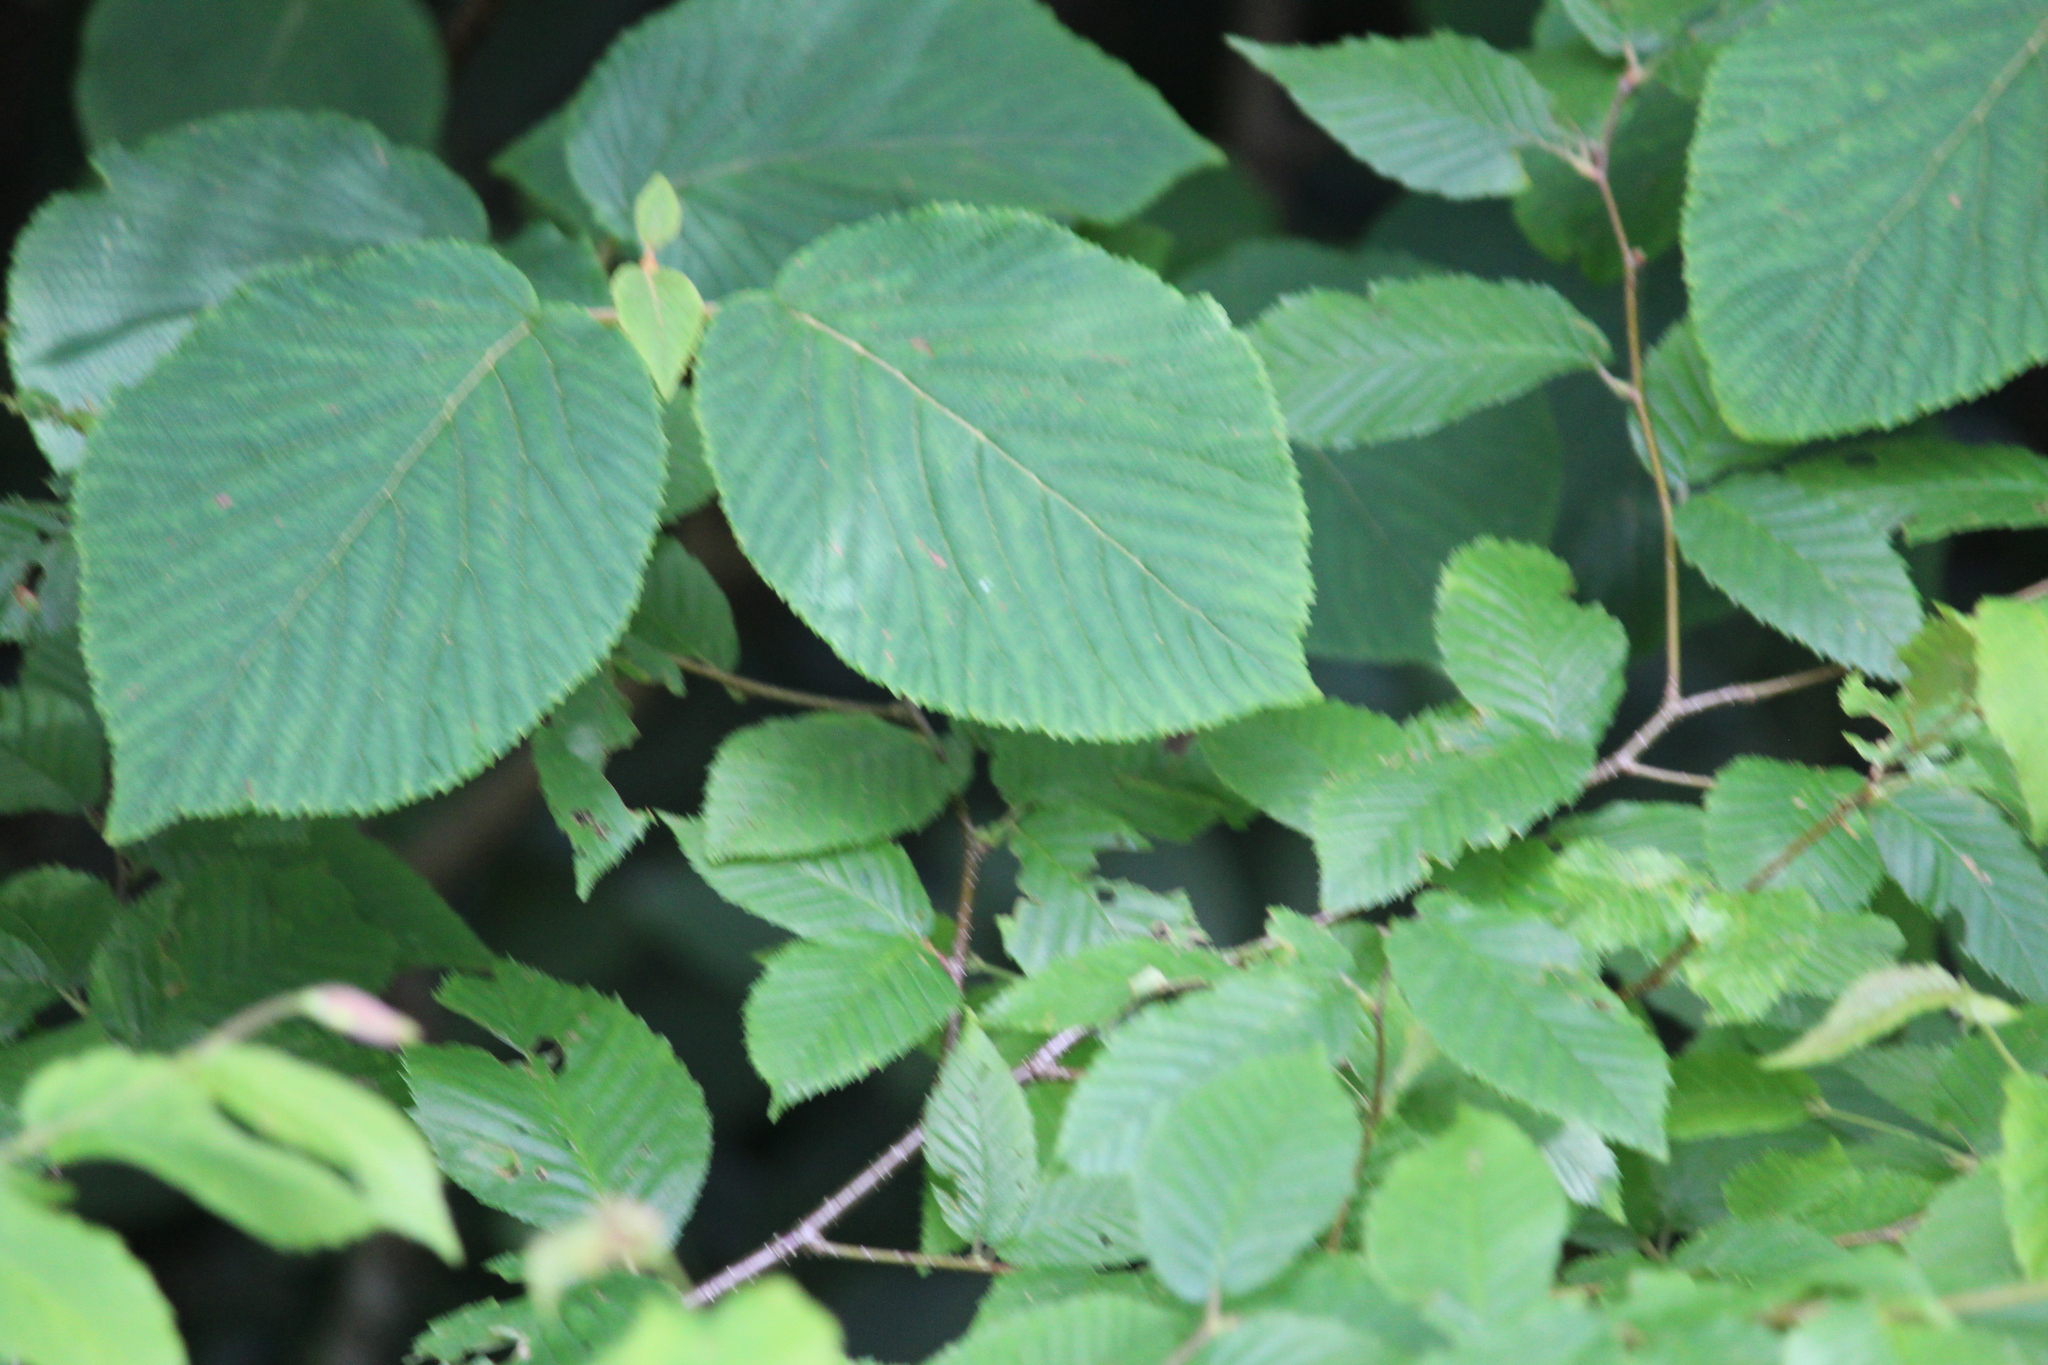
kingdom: Plantae
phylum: Tracheophyta
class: Magnoliopsida
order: Dipsacales
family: Viburnaceae
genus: Viburnum
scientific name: Viburnum lantanoides
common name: Hobblebush
